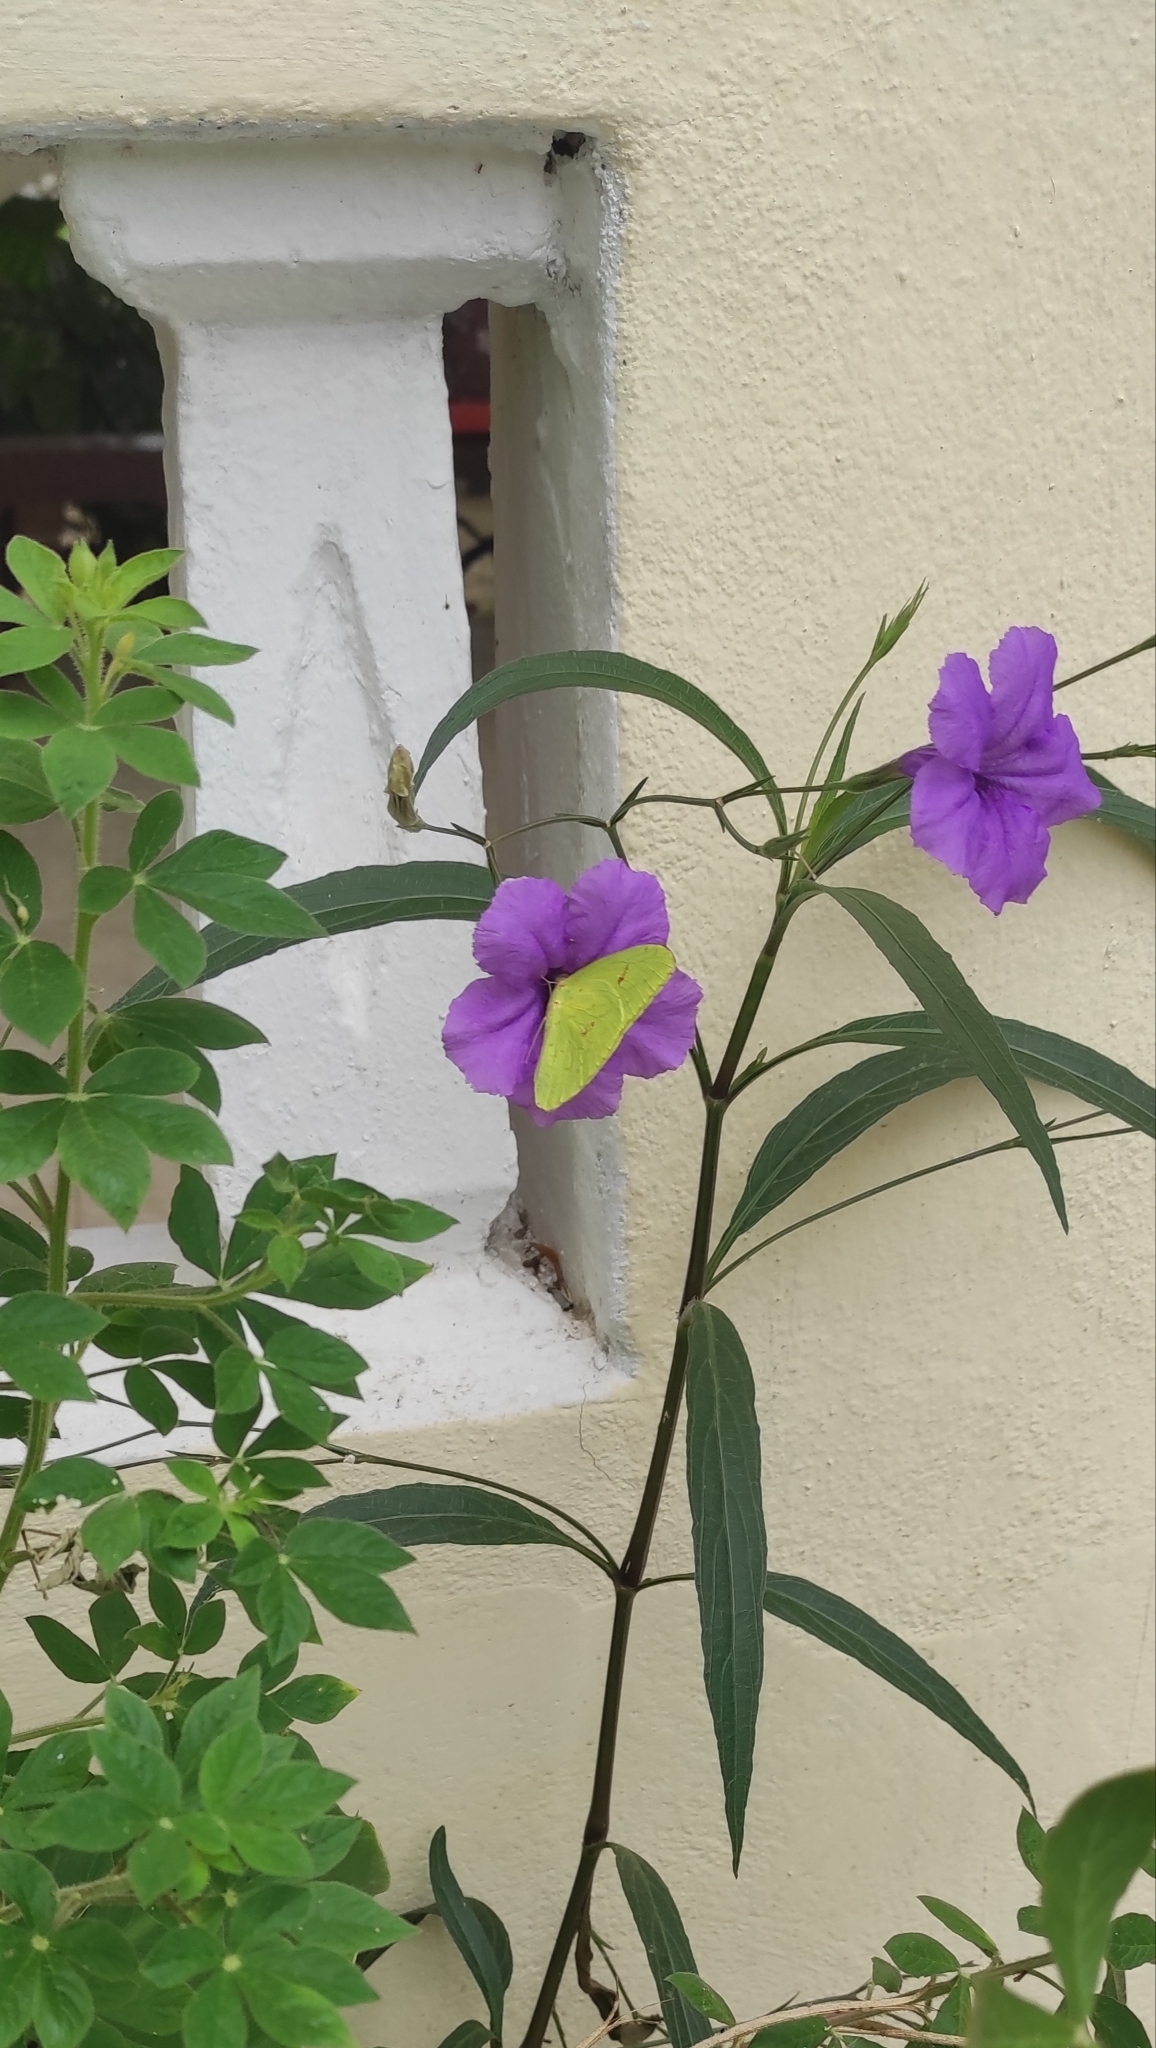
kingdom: Animalia
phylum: Arthropoda
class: Insecta
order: Lepidoptera
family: Pieridae
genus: Phoebis
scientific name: Phoebis sennae
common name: Cloudless sulphur
